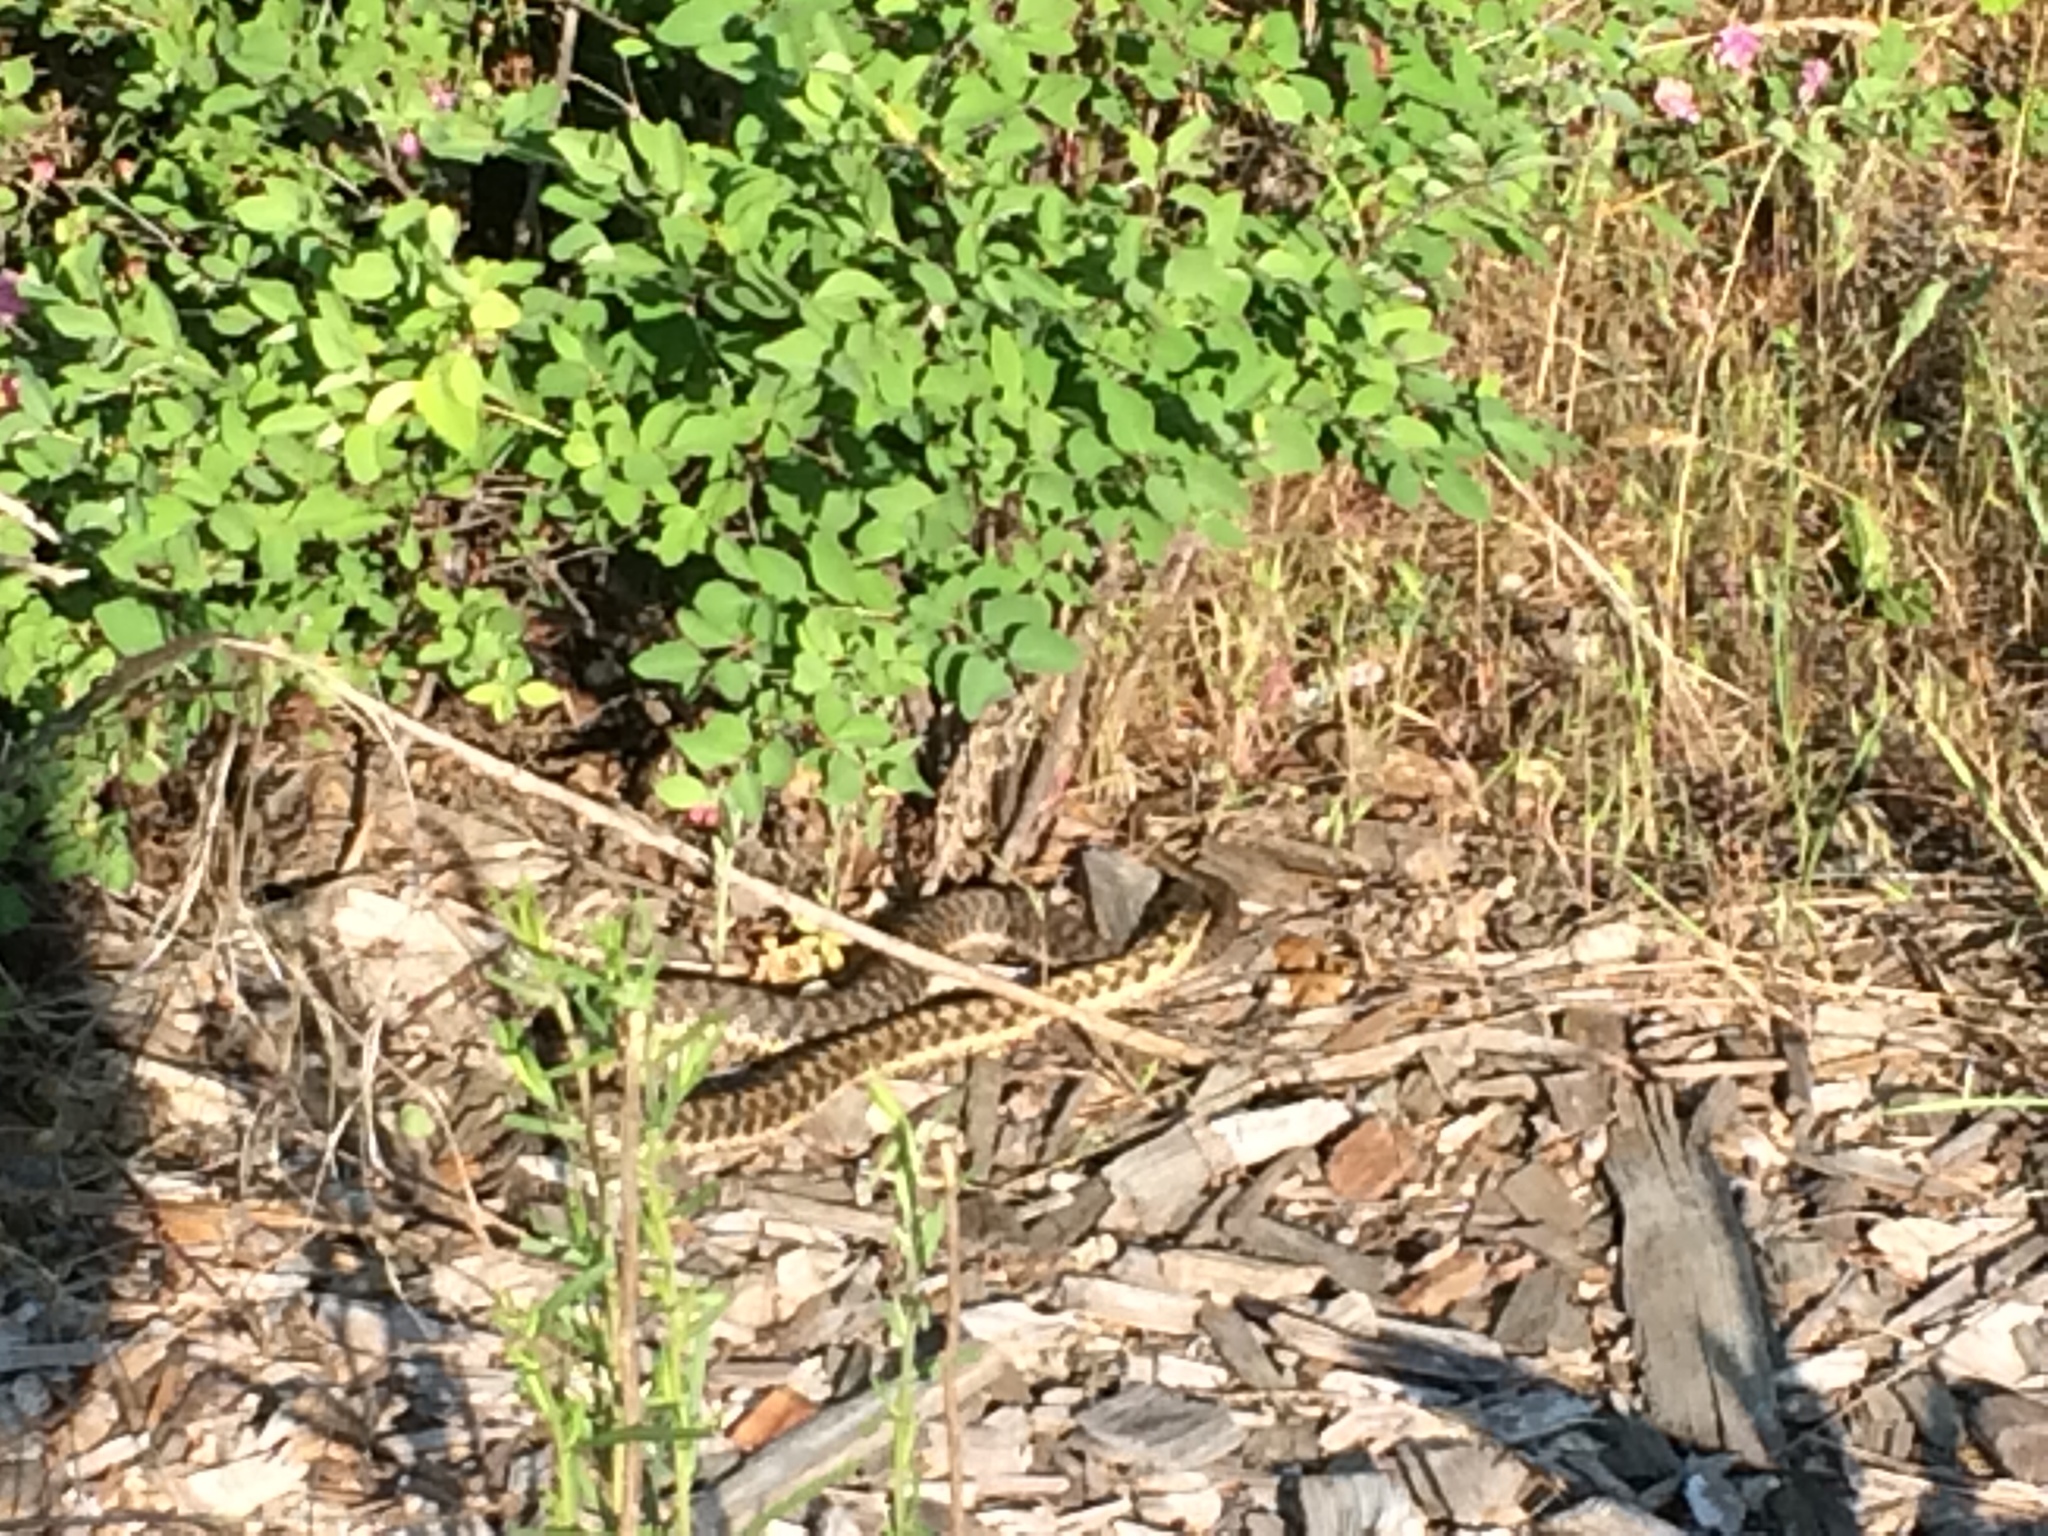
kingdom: Animalia
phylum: Chordata
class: Squamata
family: Colubridae
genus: Thamnophis
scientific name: Thamnophis elegans
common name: Western terrestrial garter snake
